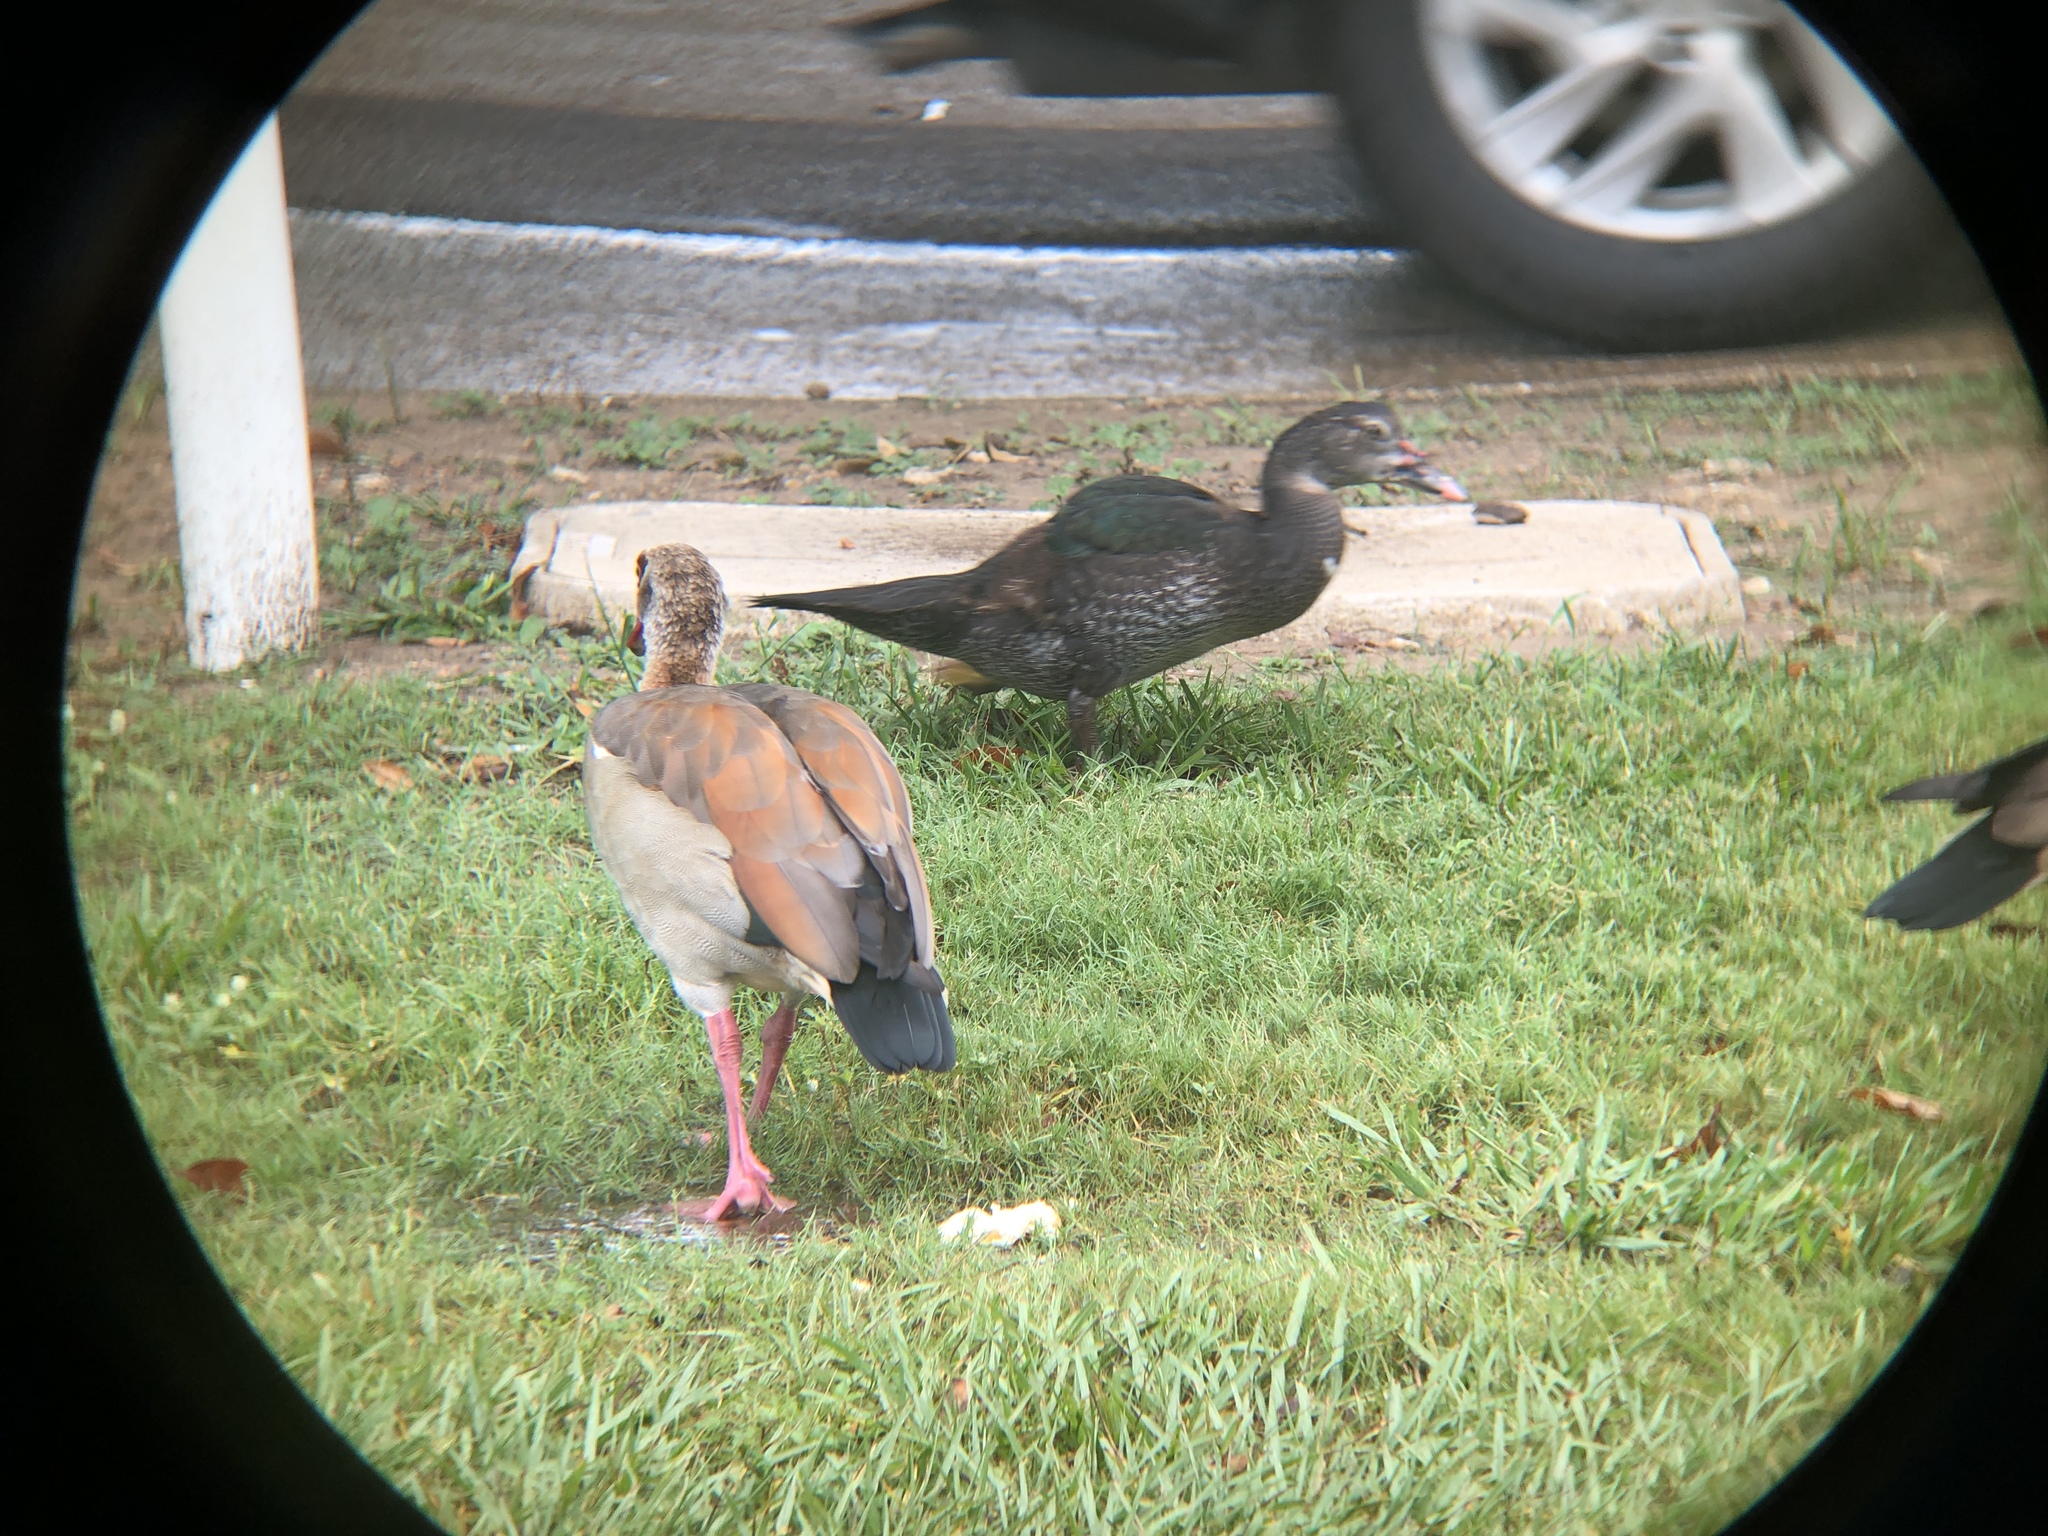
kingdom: Animalia
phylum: Chordata
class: Aves
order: Anseriformes
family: Anatidae
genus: Alopochen
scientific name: Alopochen aegyptiaca
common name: Egyptian goose
